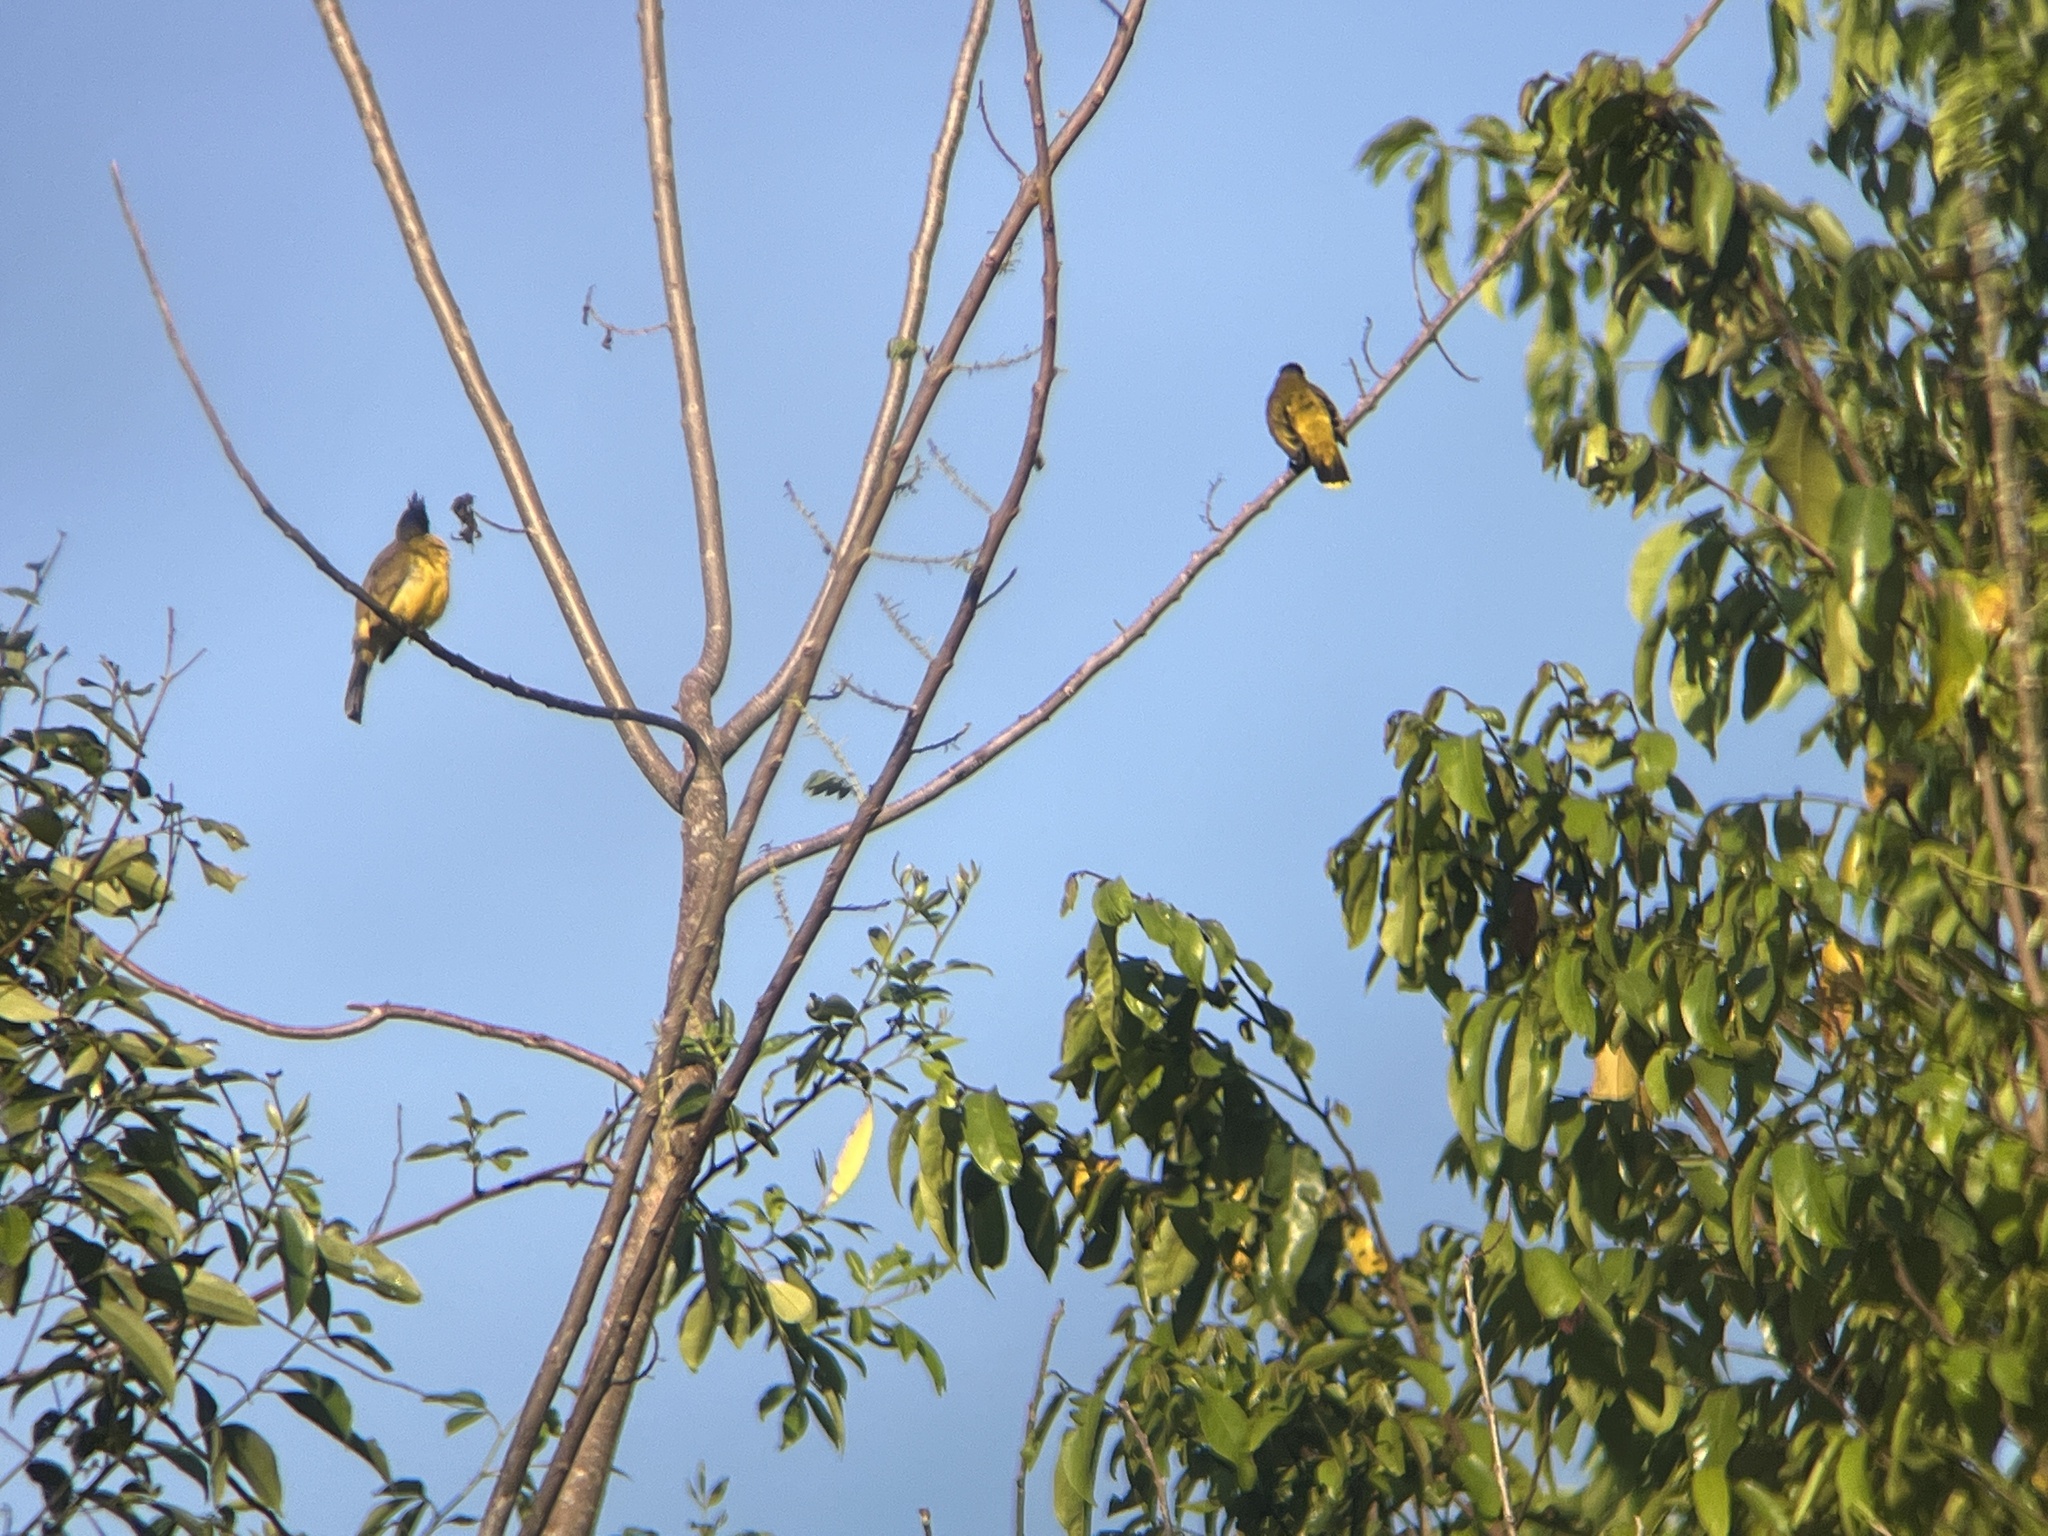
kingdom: Animalia
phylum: Chordata
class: Aves
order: Passeriformes
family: Pycnonotidae
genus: Pycnonotus
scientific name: Pycnonotus flaviventris
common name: Black-crested bulbul
